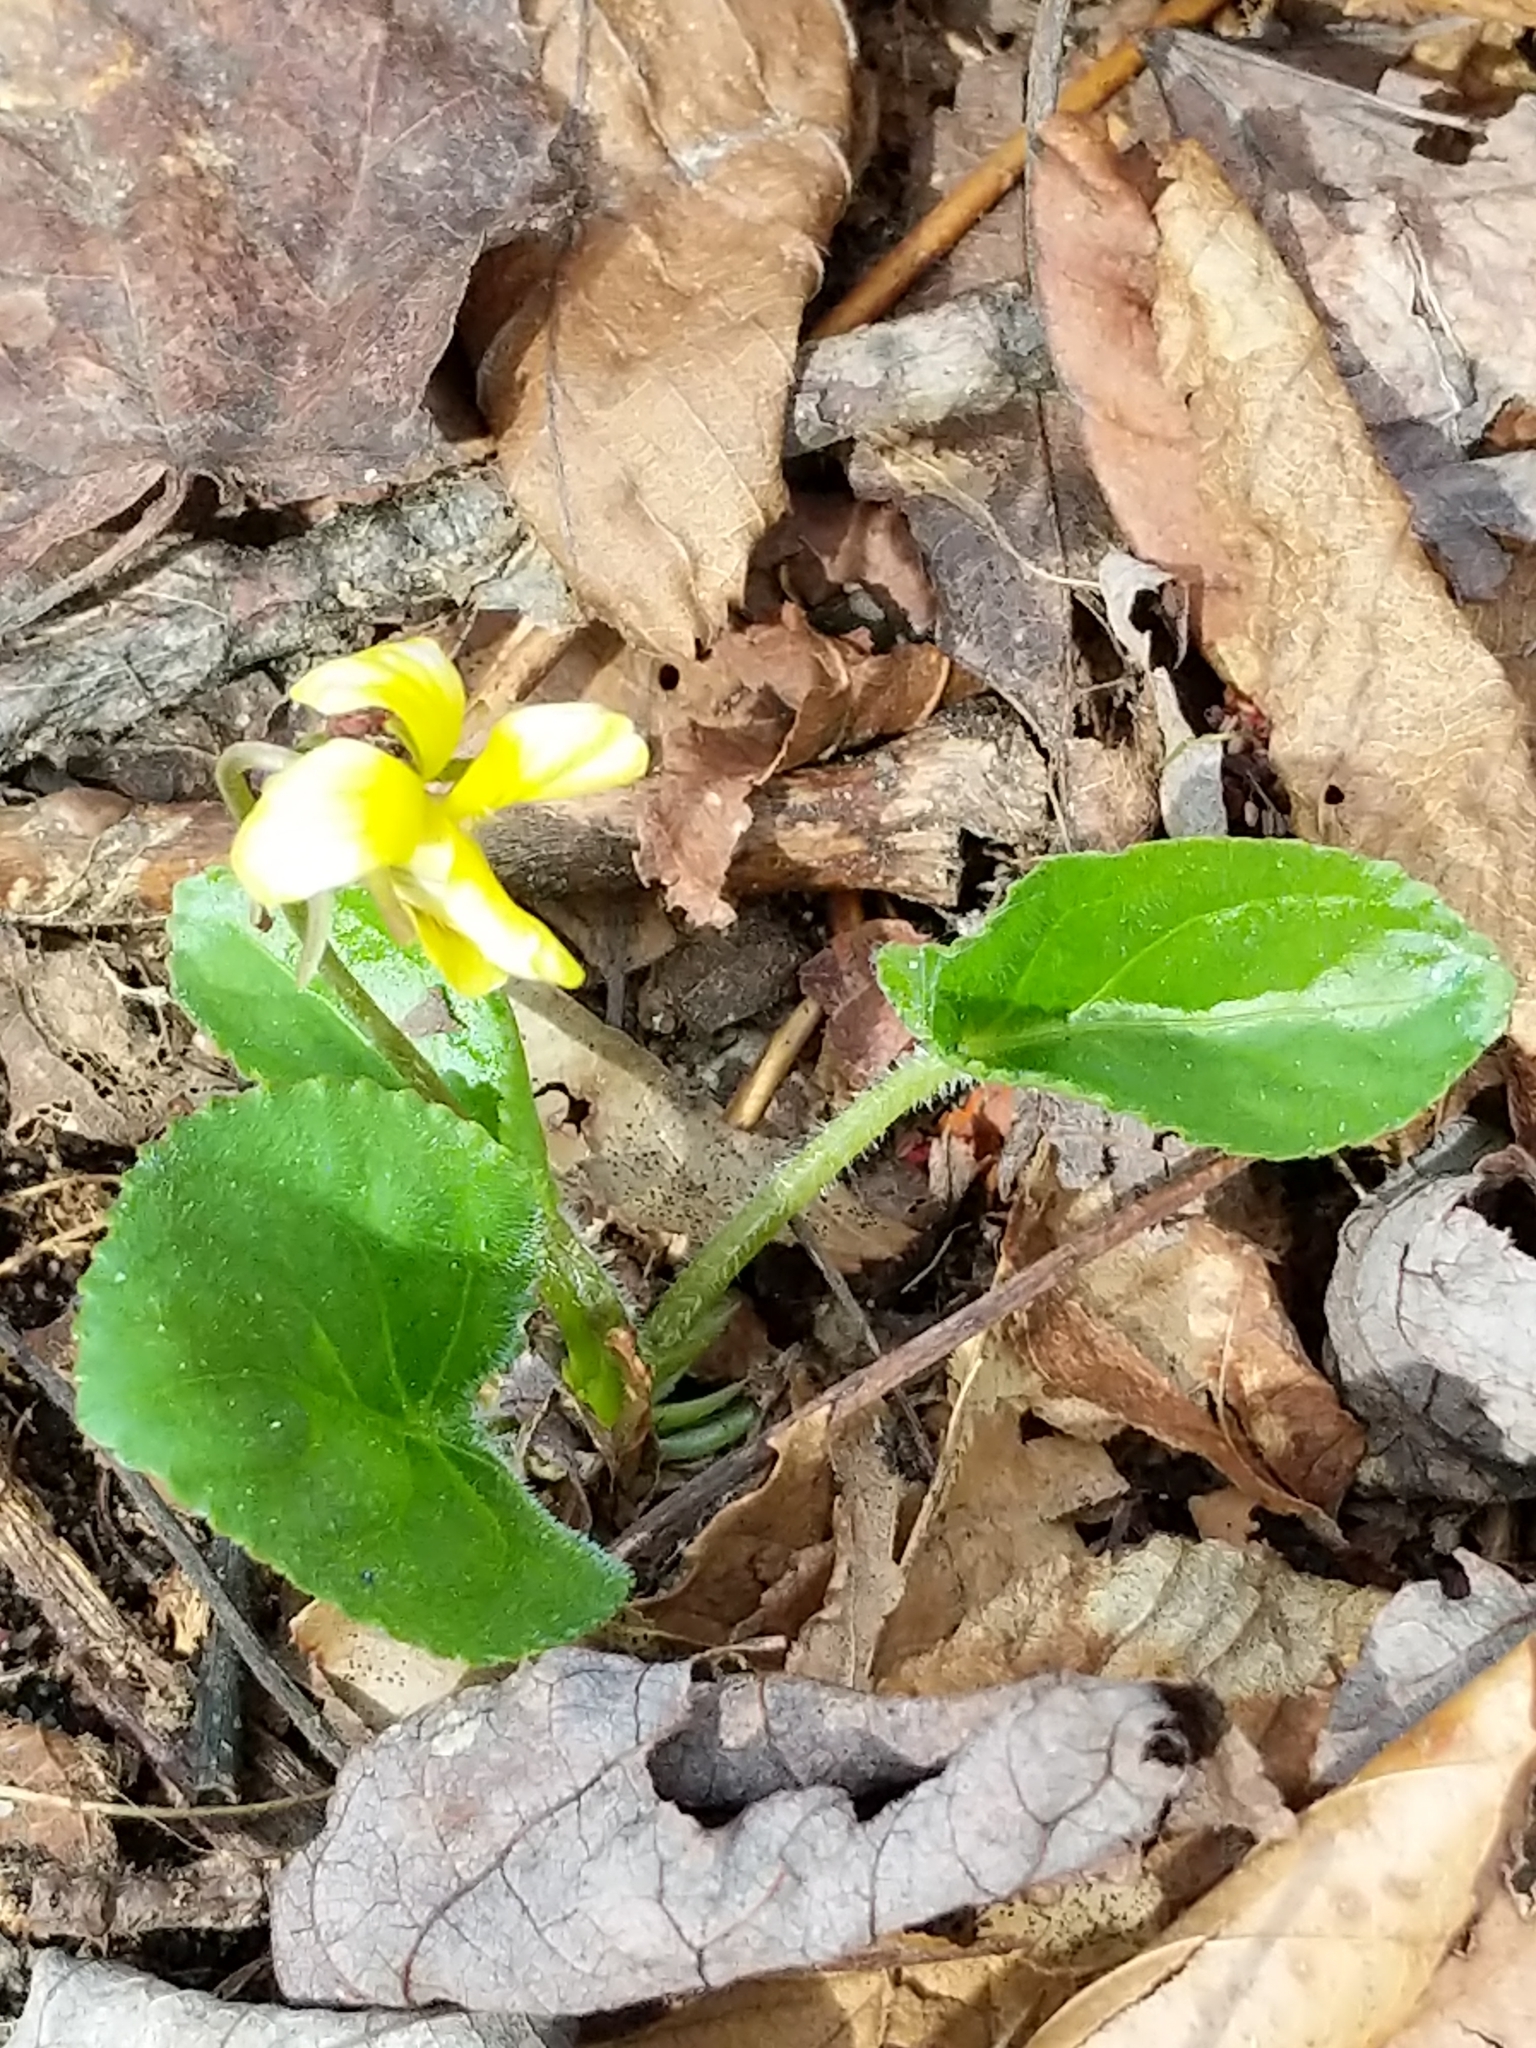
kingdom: Plantae
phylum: Tracheophyta
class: Magnoliopsida
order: Malpighiales
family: Violaceae
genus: Viola
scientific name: Viola rotundifolia
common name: Early yellow violet
